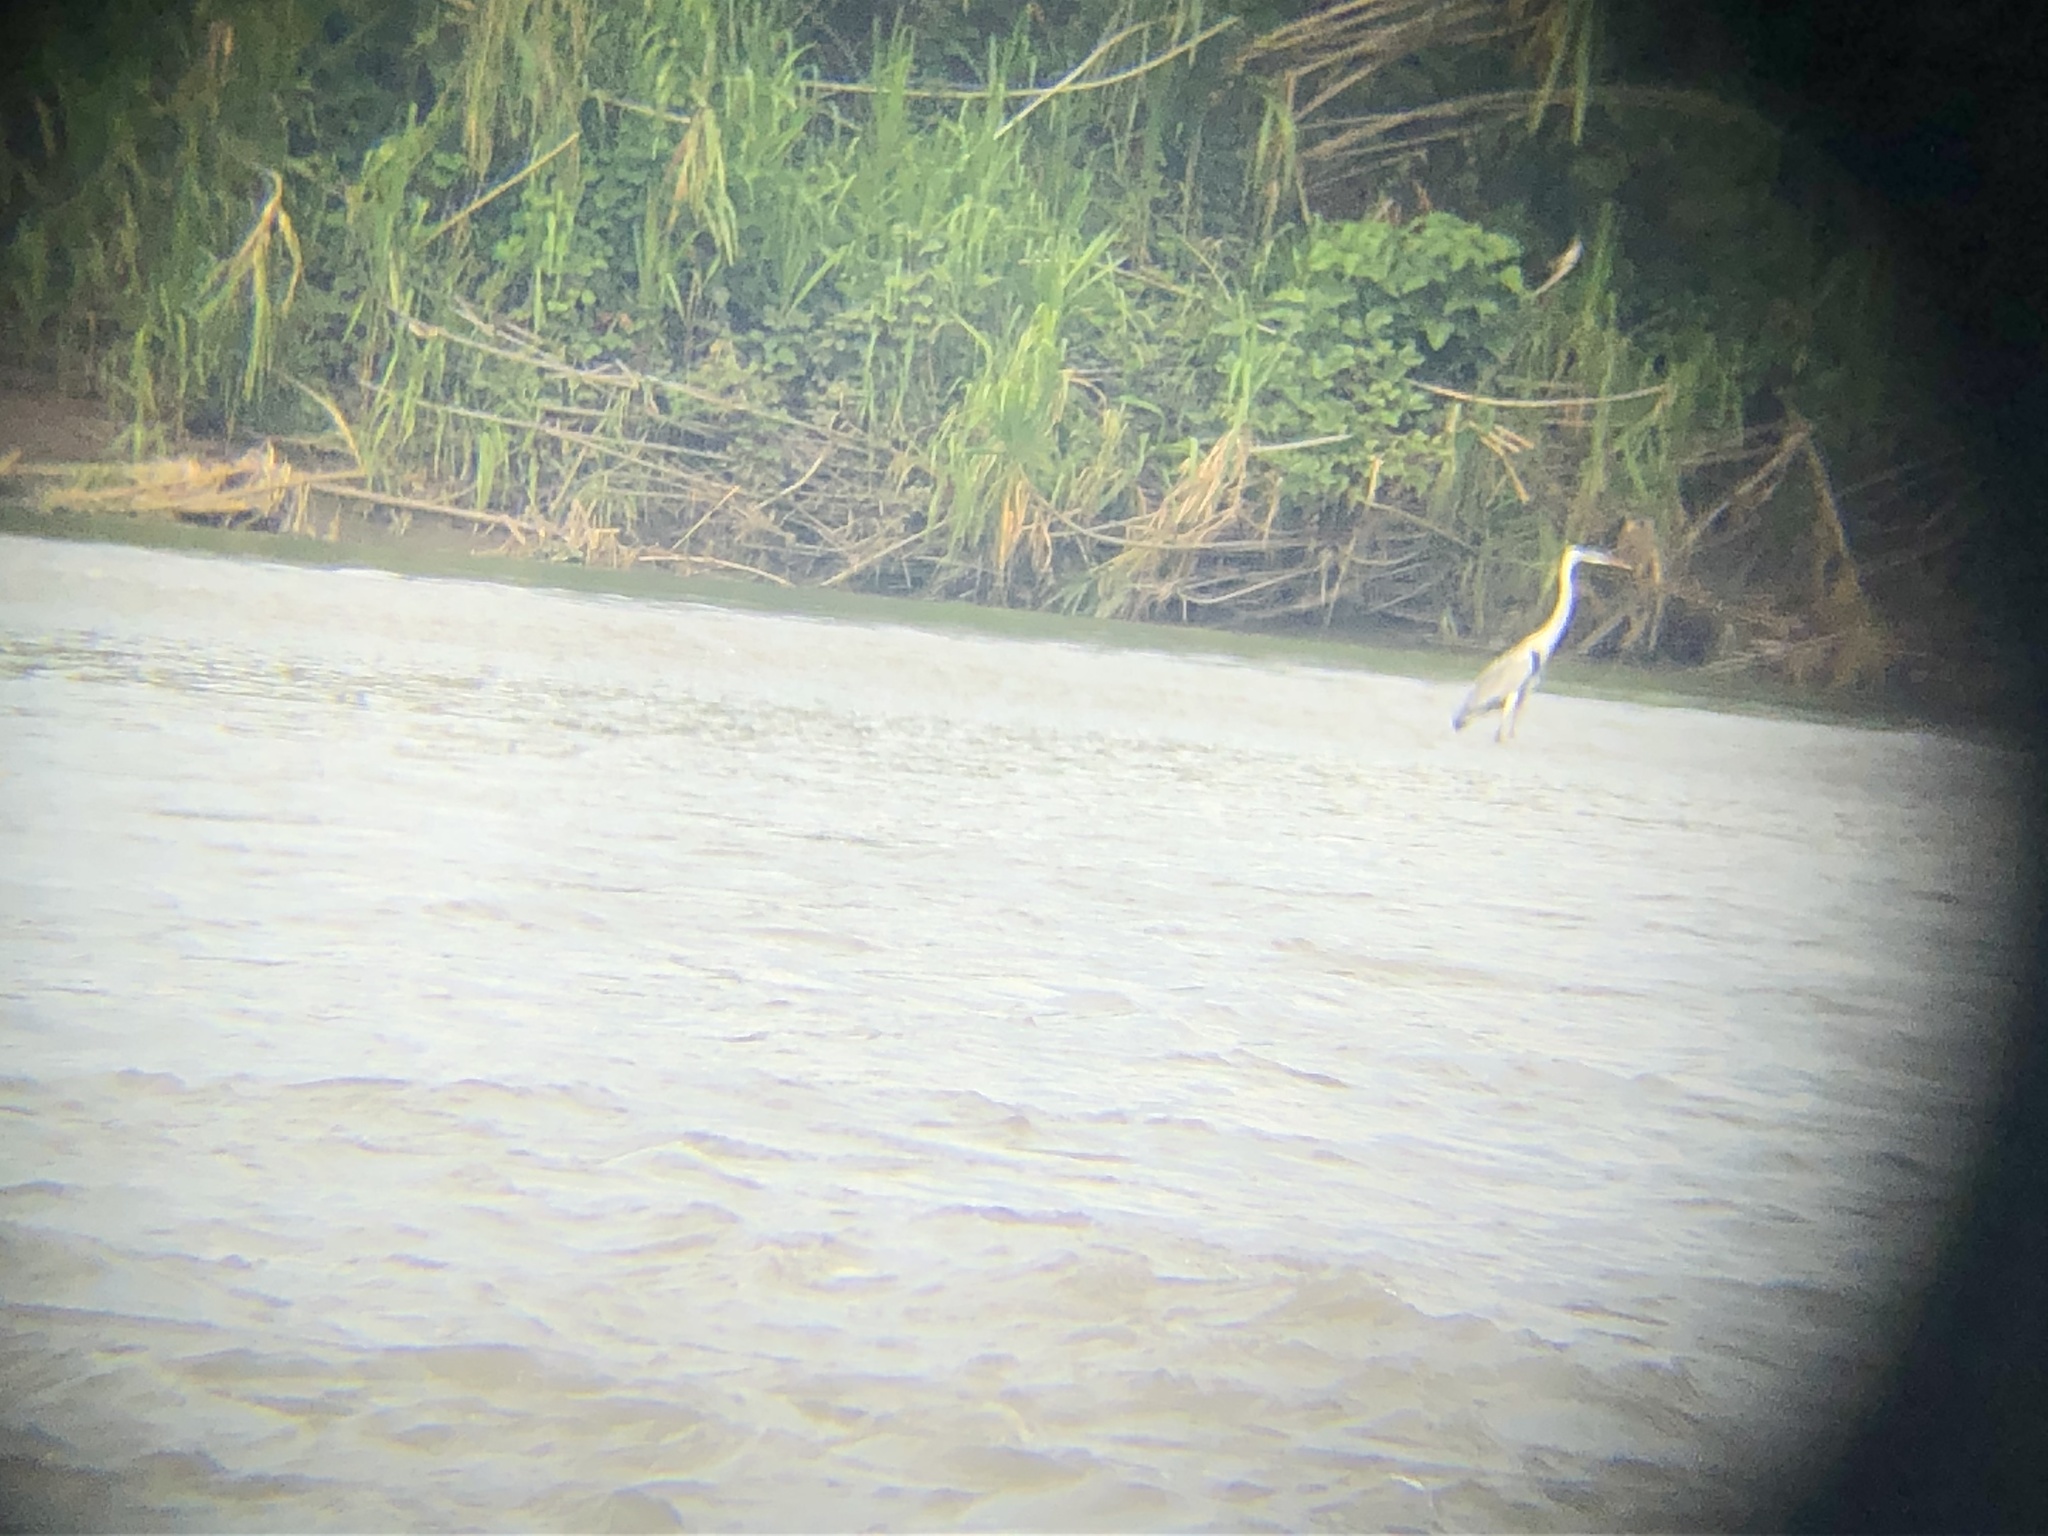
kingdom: Animalia
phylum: Chordata
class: Aves
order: Pelecaniformes
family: Ardeidae
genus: Ardea
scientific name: Ardea cocoi
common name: Cocoi heron
